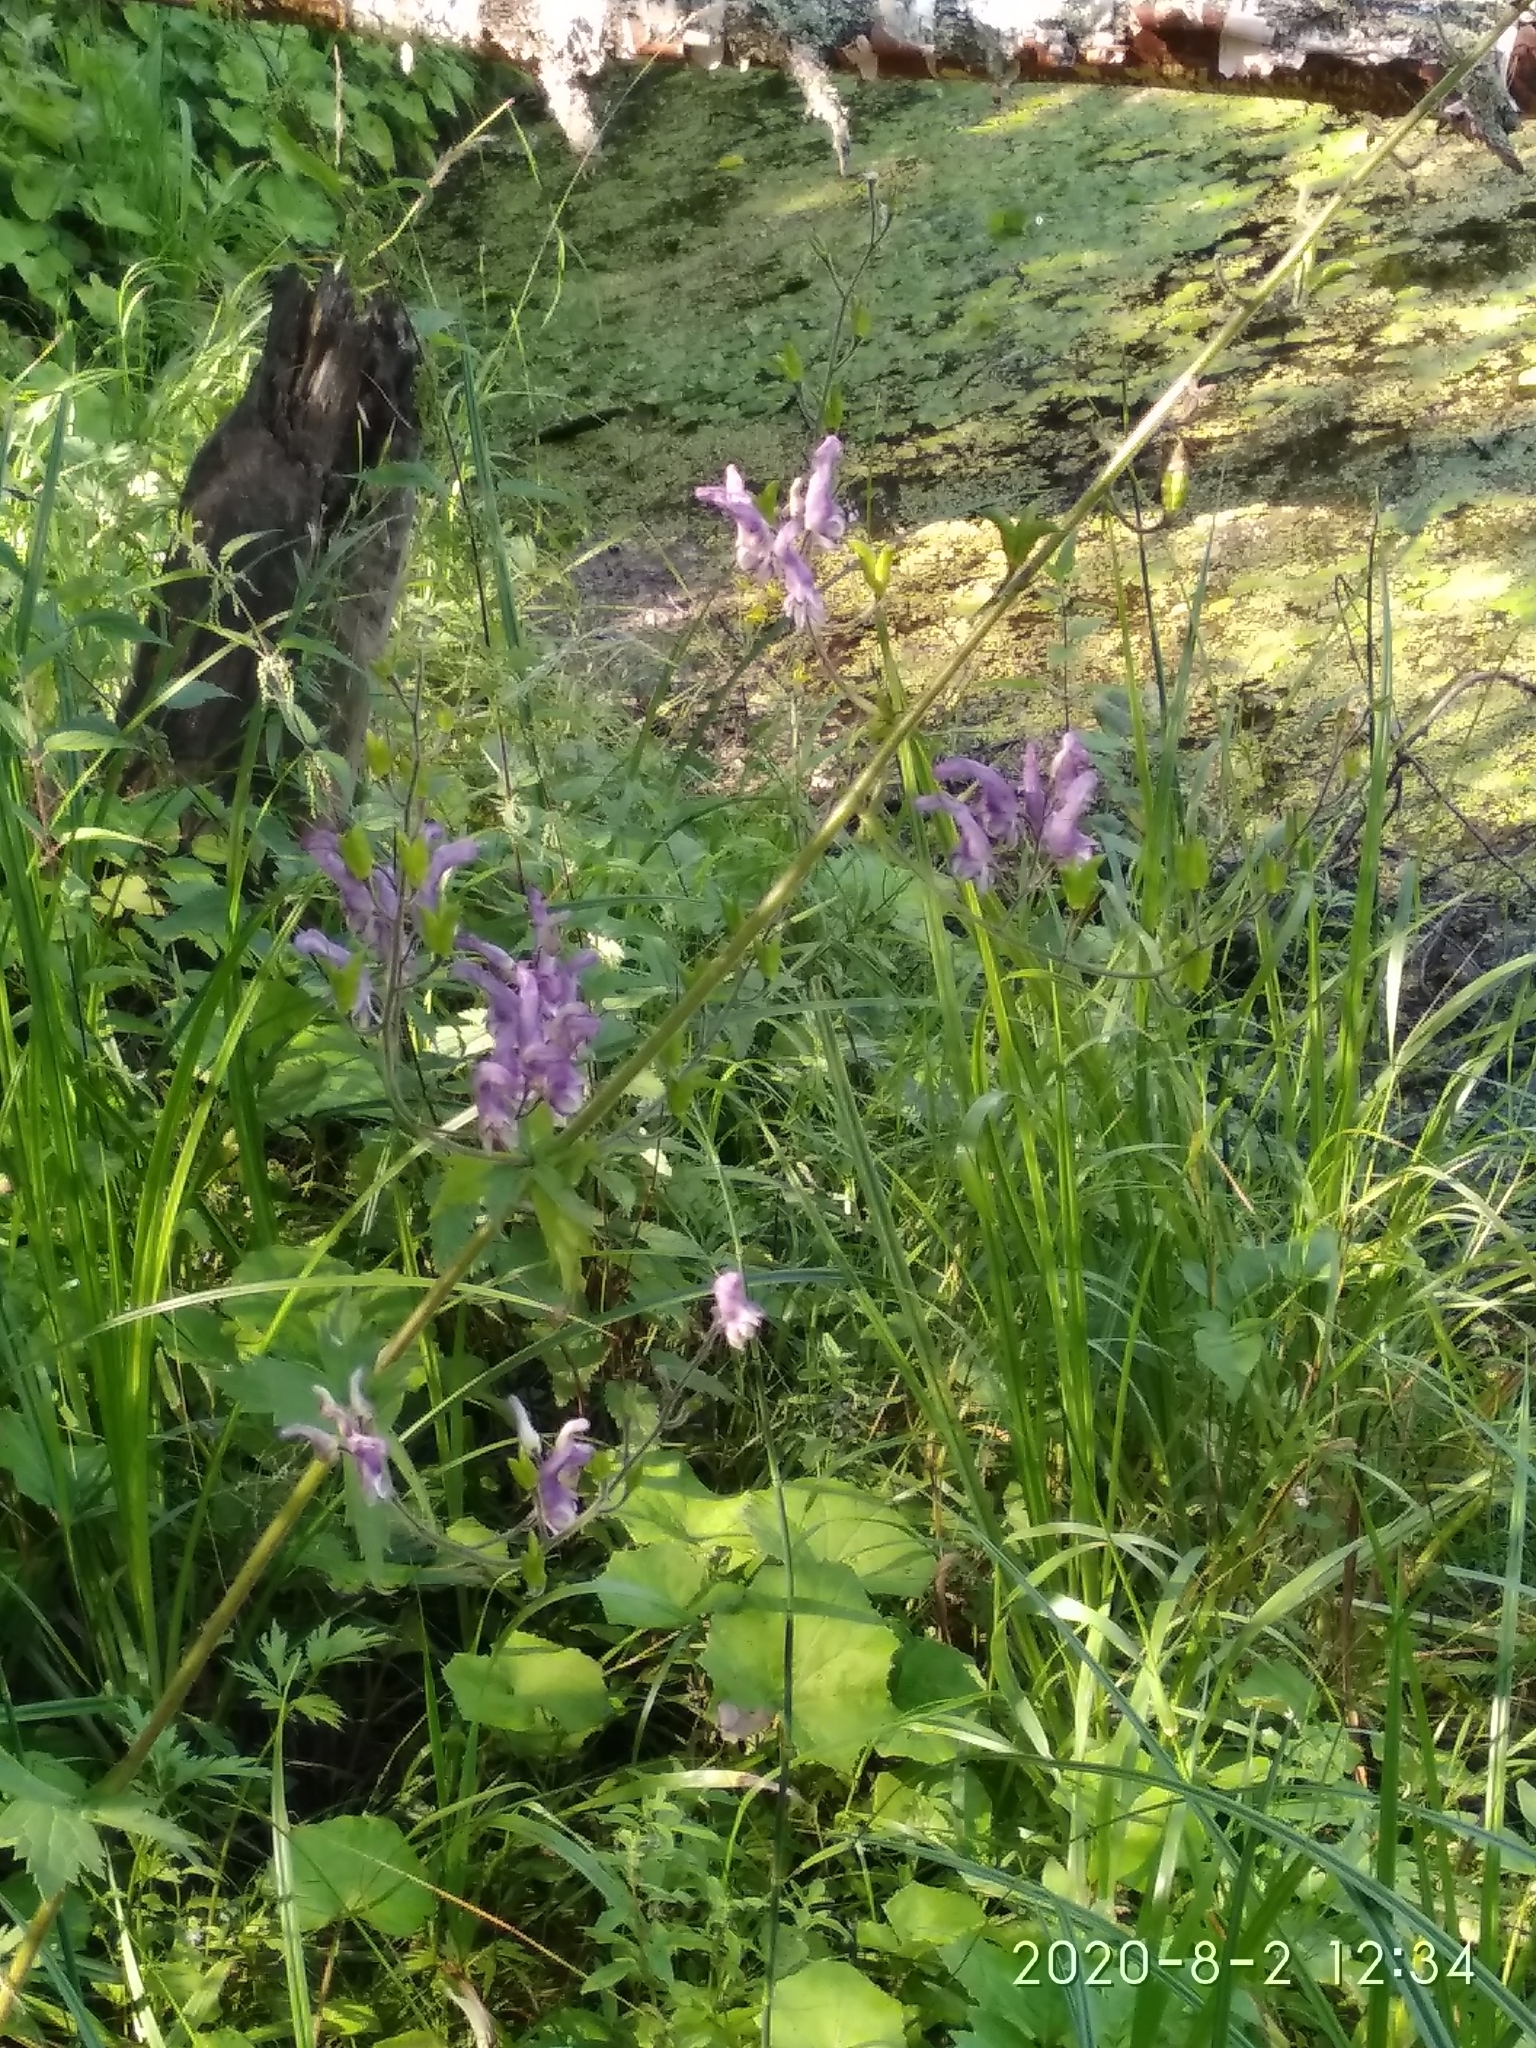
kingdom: Plantae
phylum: Tracheophyta
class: Magnoliopsida
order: Ranunculales
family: Ranunculaceae
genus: Aconitum
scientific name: Aconitum septentrionale
